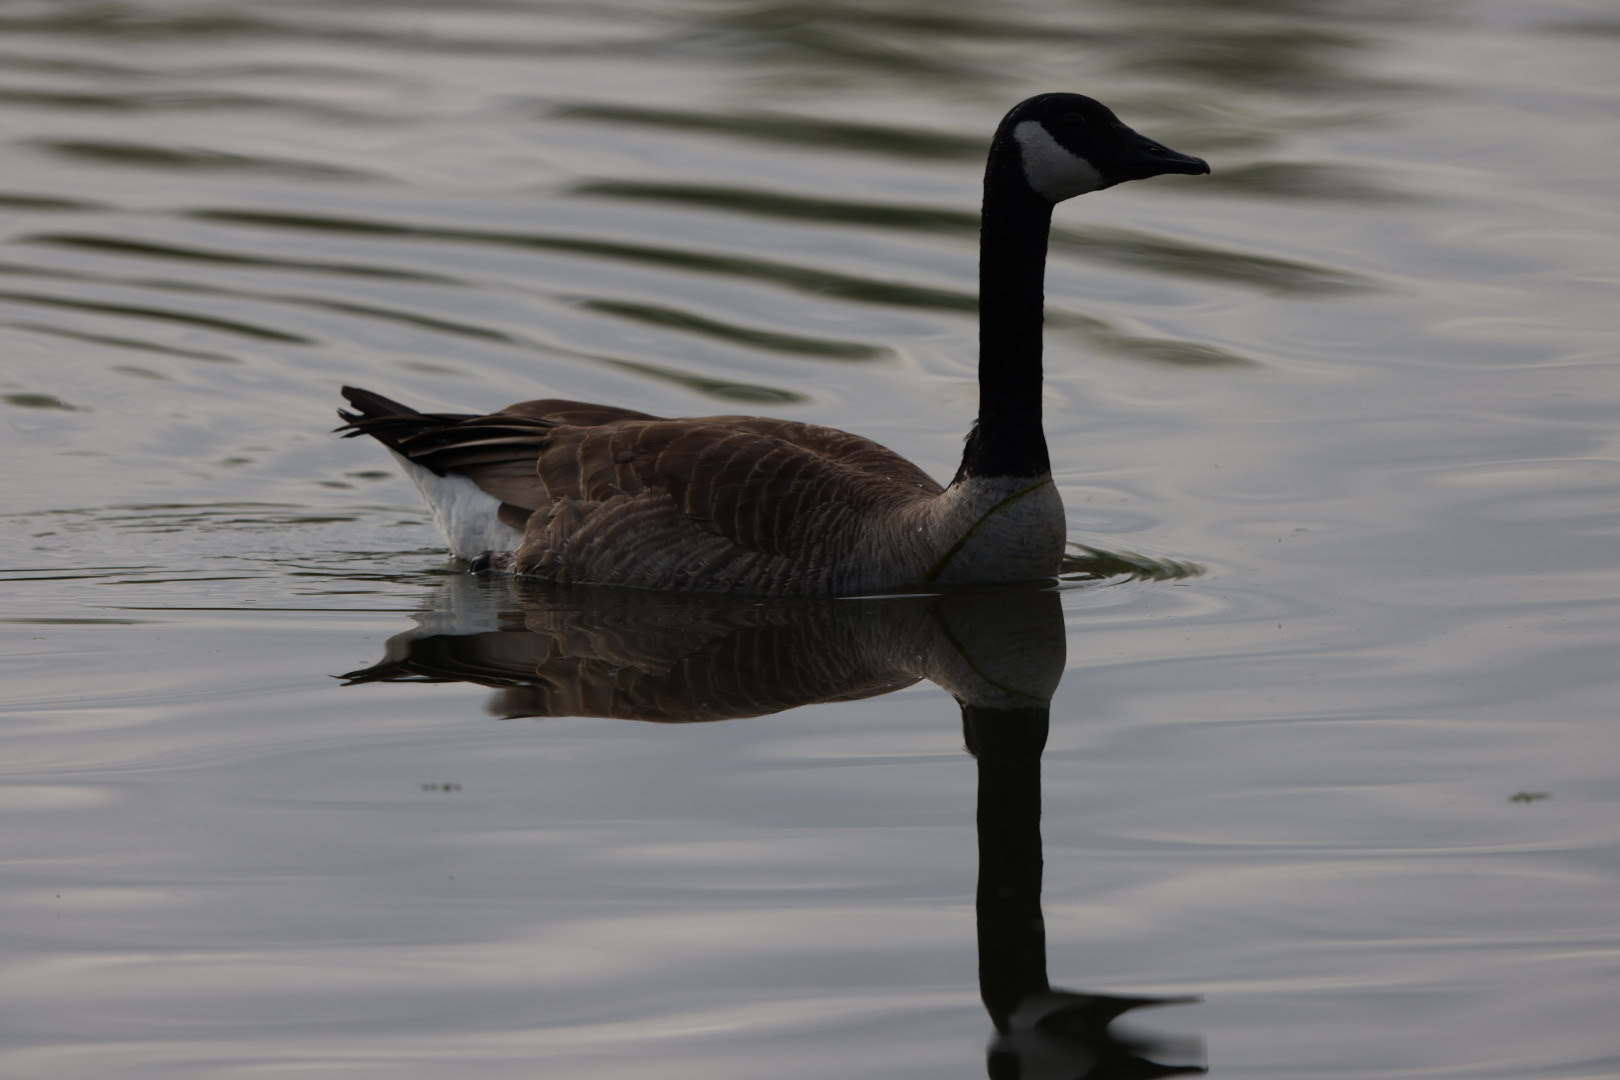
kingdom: Animalia
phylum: Chordata
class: Aves
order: Anseriformes
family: Anatidae
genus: Branta
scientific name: Branta canadensis
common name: Canada goose
